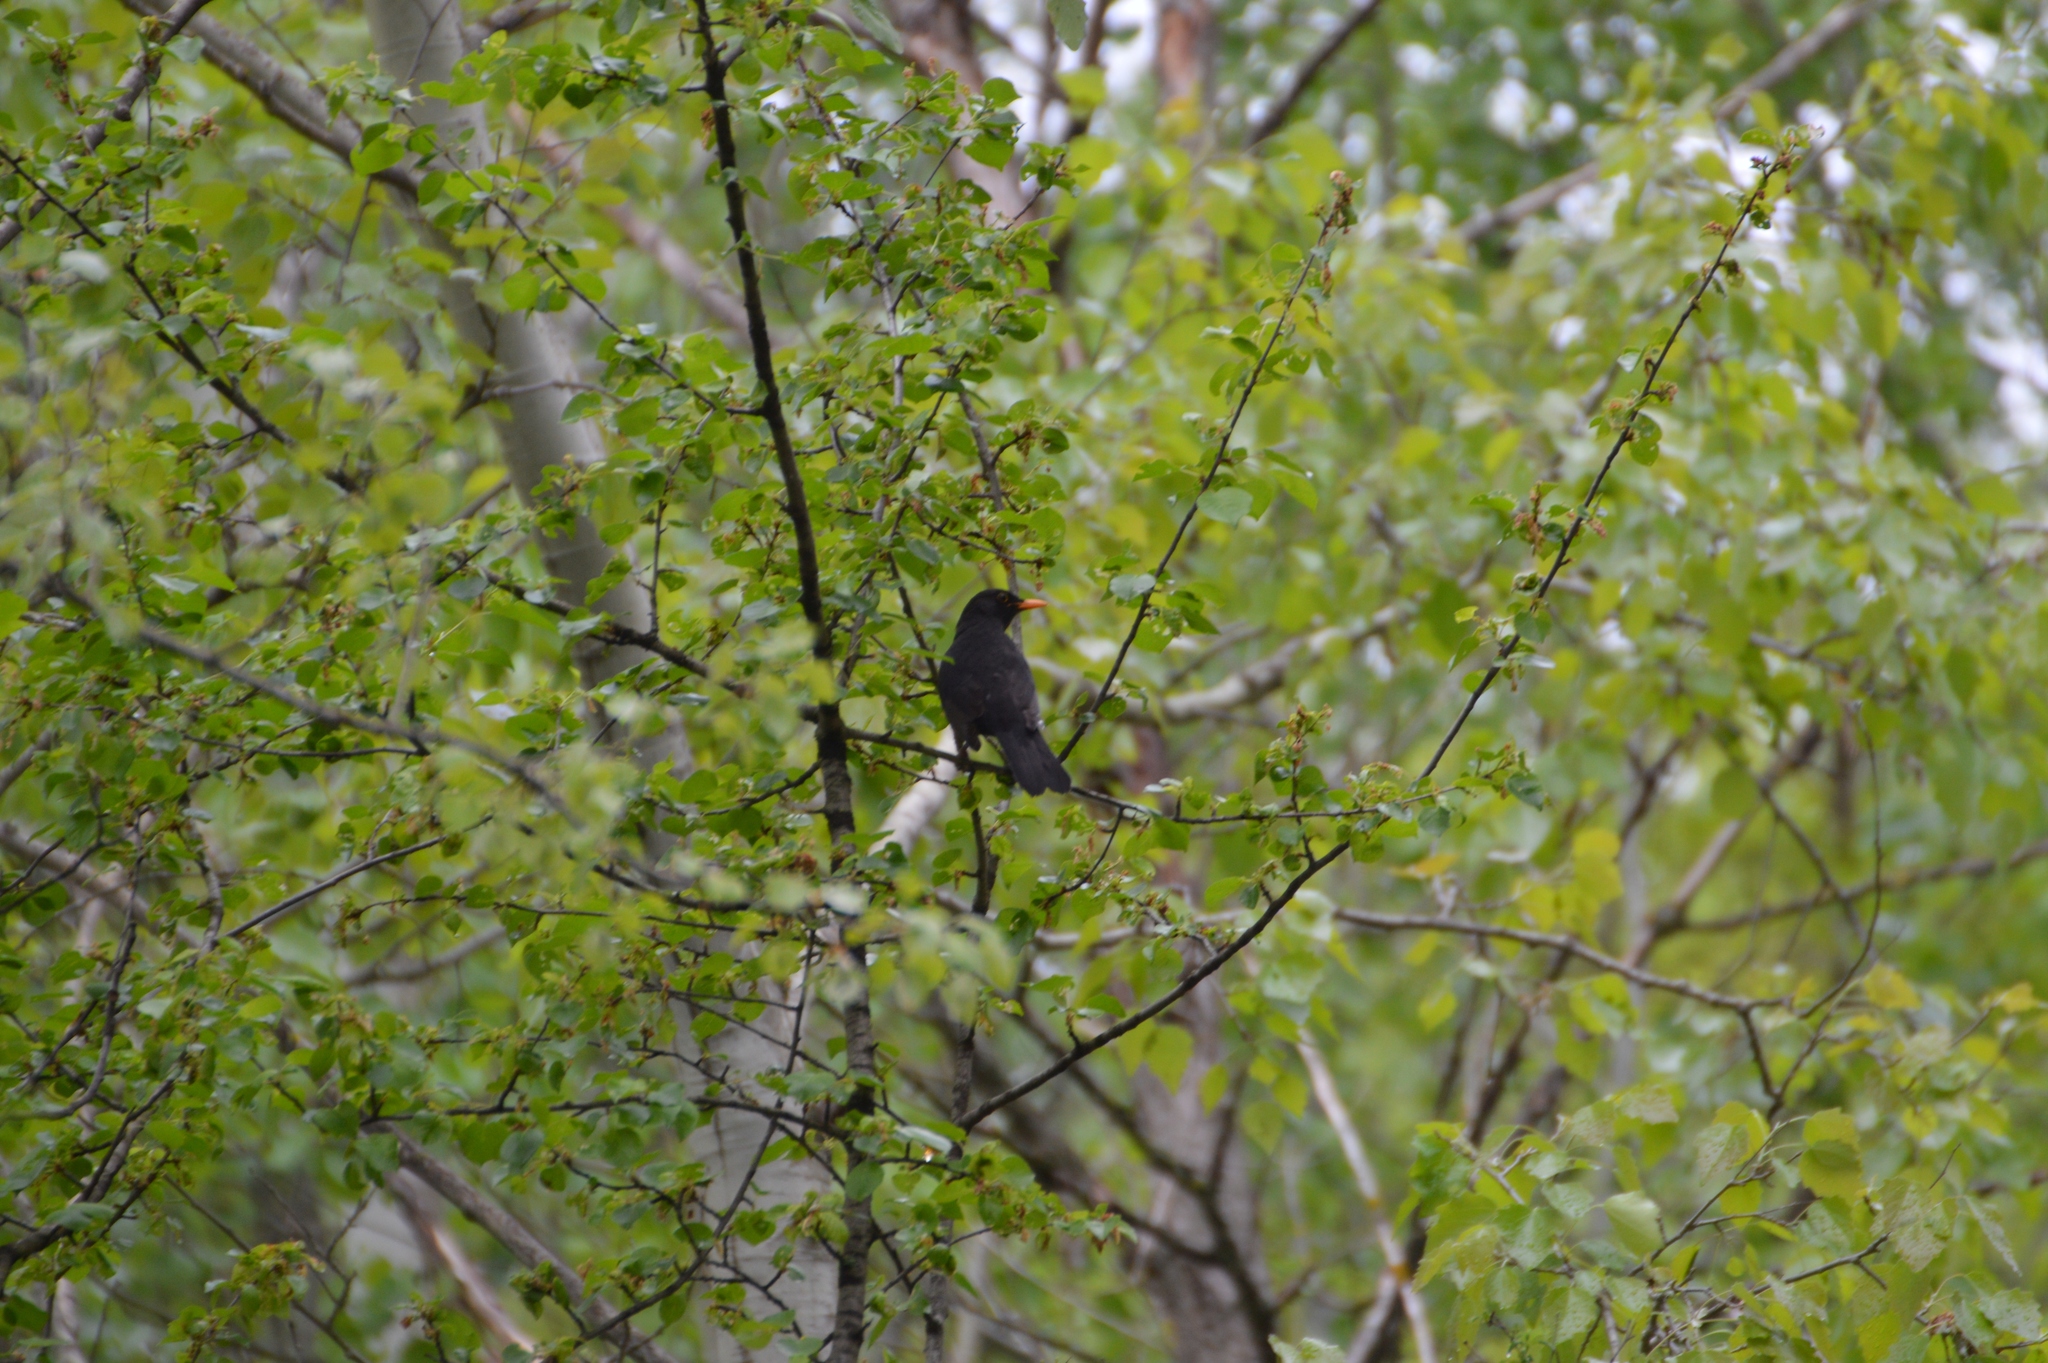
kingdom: Animalia
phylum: Chordata
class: Aves
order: Passeriformes
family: Turdidae
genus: Turdus
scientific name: Turdus merula
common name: Common blackbird
